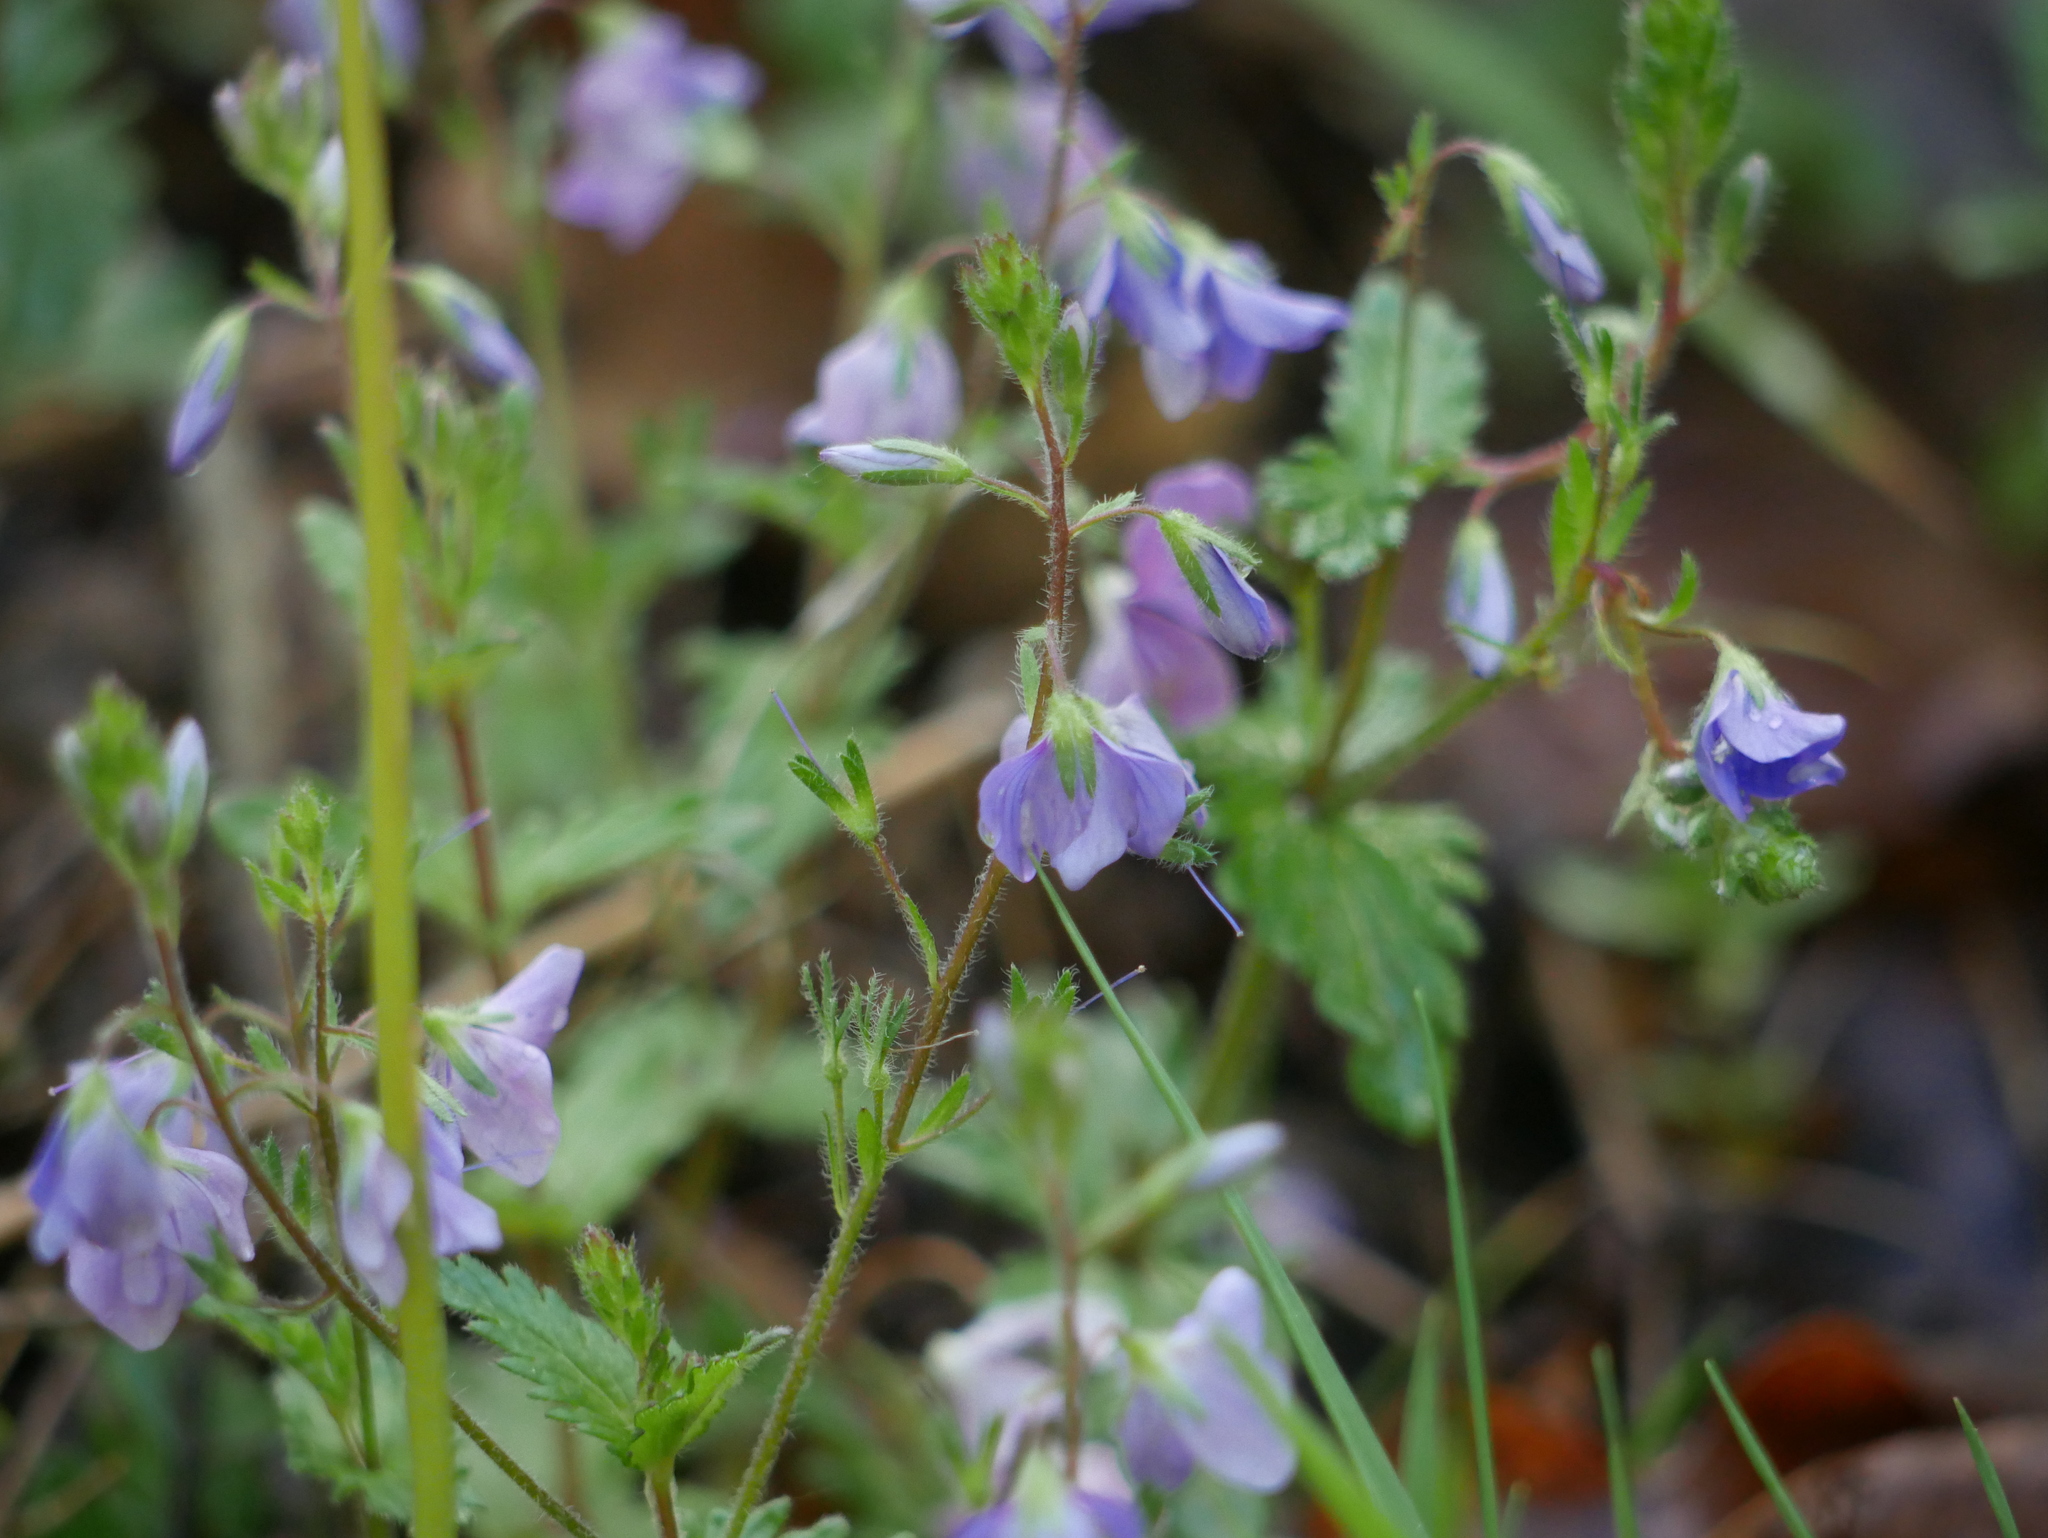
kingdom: Plantae
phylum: Tracheophyta
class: Magnoliopsida
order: Lamiales
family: Plantaginaceae
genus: Veronica
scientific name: Veronica chamaedrys
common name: Germander speedwell
